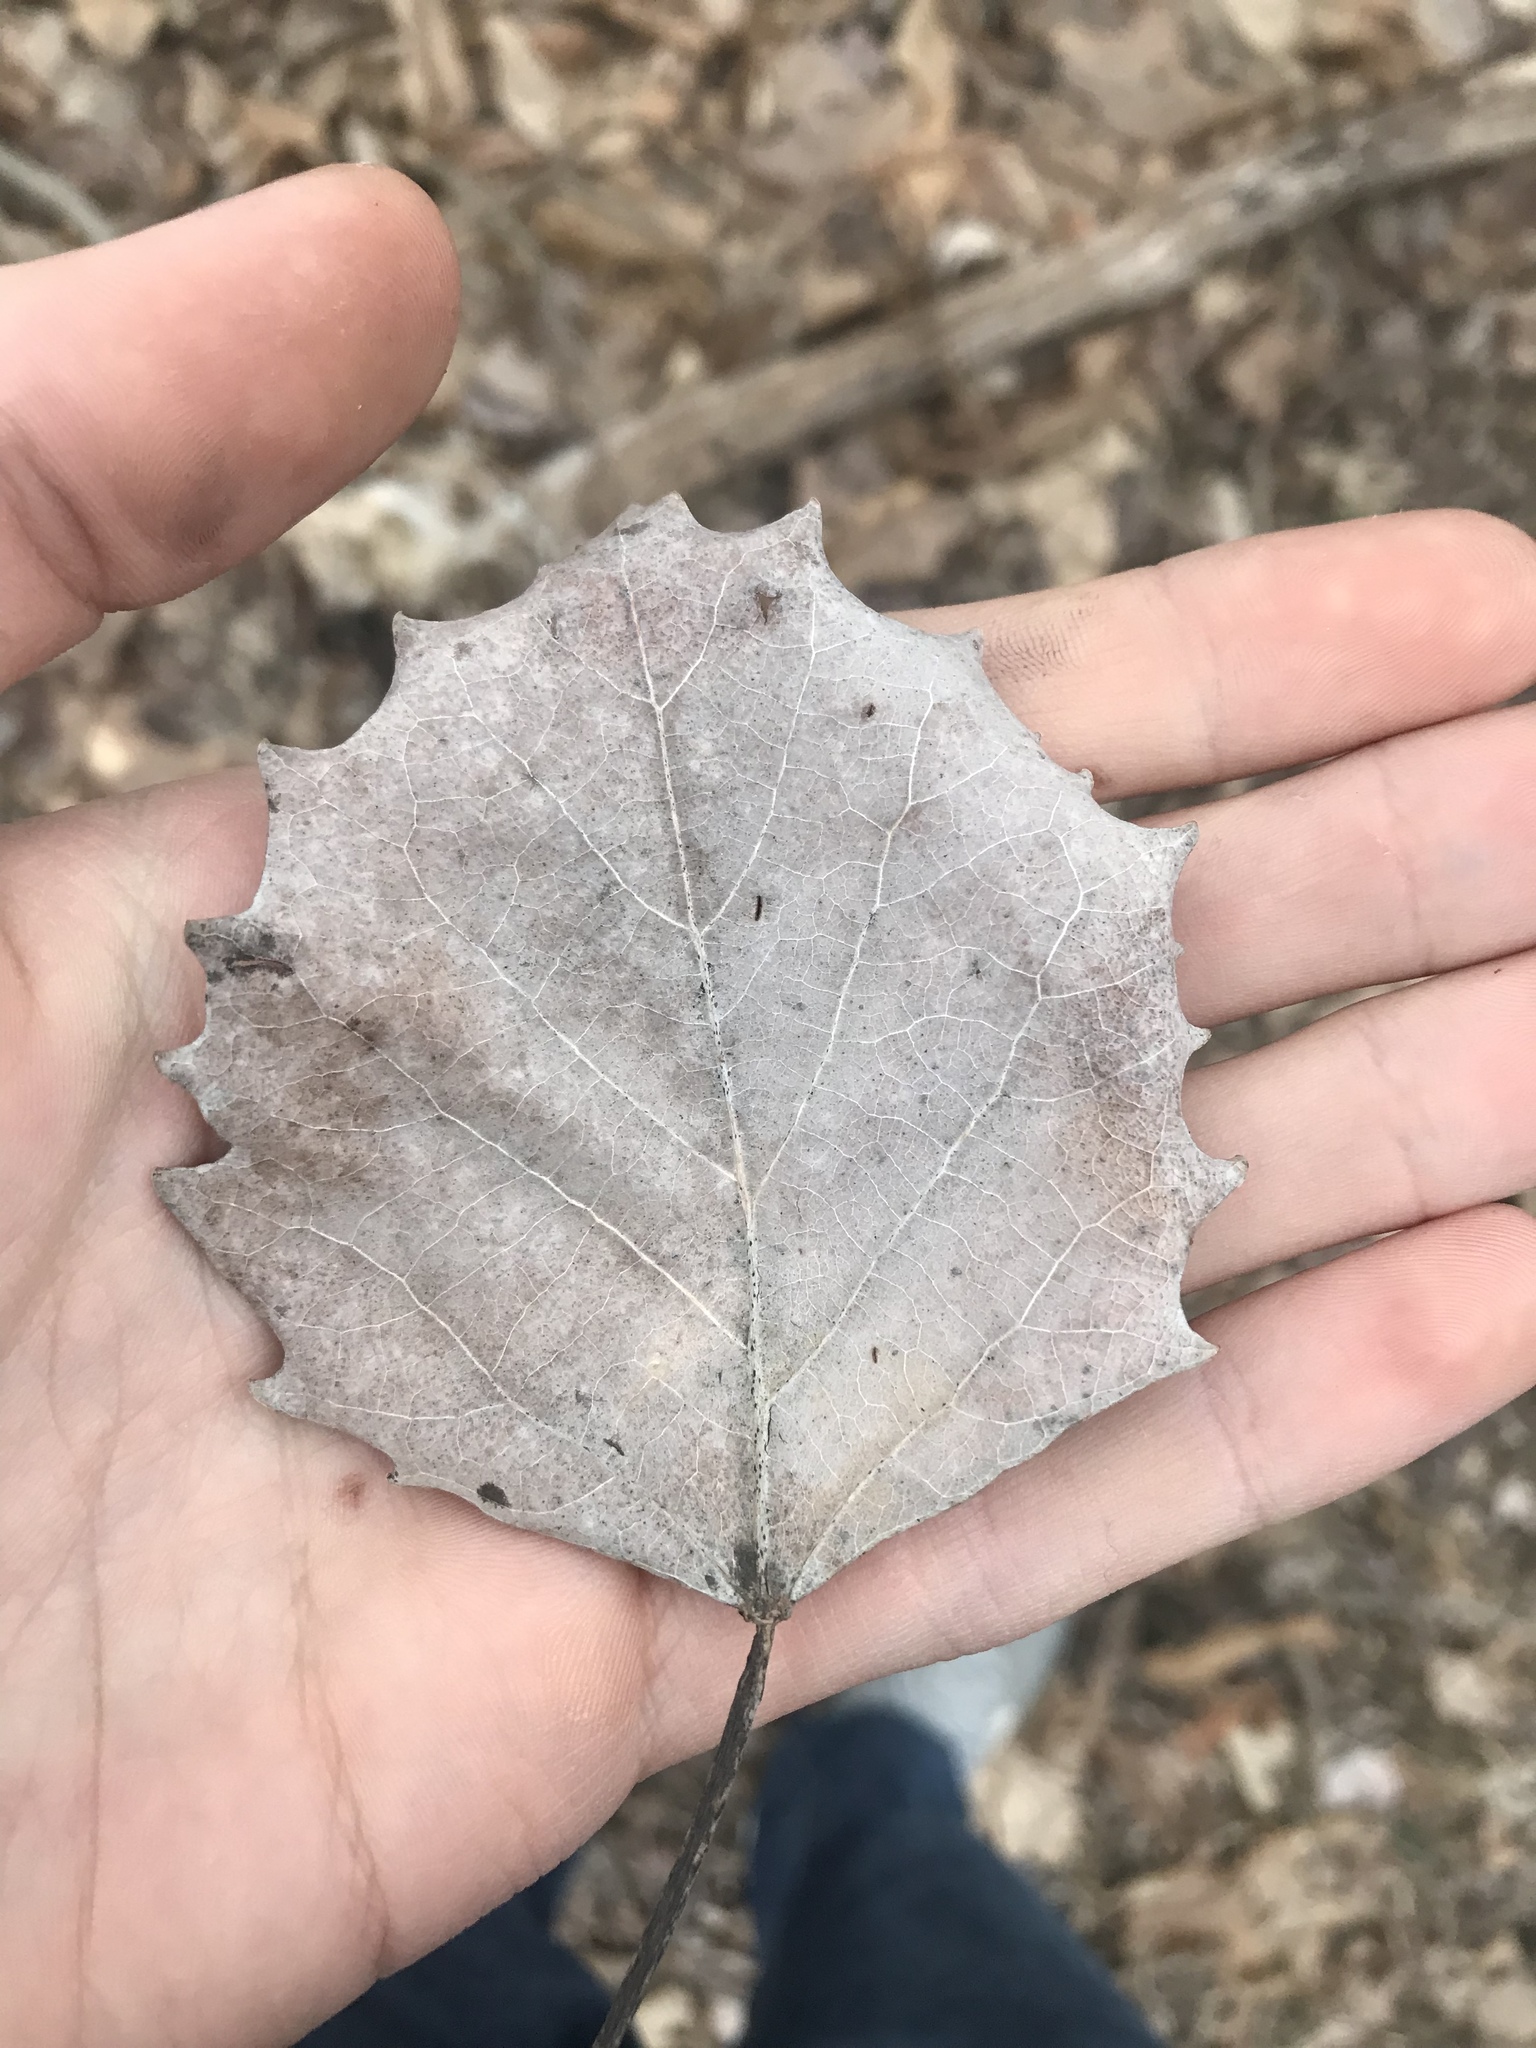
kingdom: Plantae
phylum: Tracheophyta
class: Magnoliopsida
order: Malpighiales
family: Salicaceae
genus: Populus
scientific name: Populus grandidentata
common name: Bigtooth aspen
